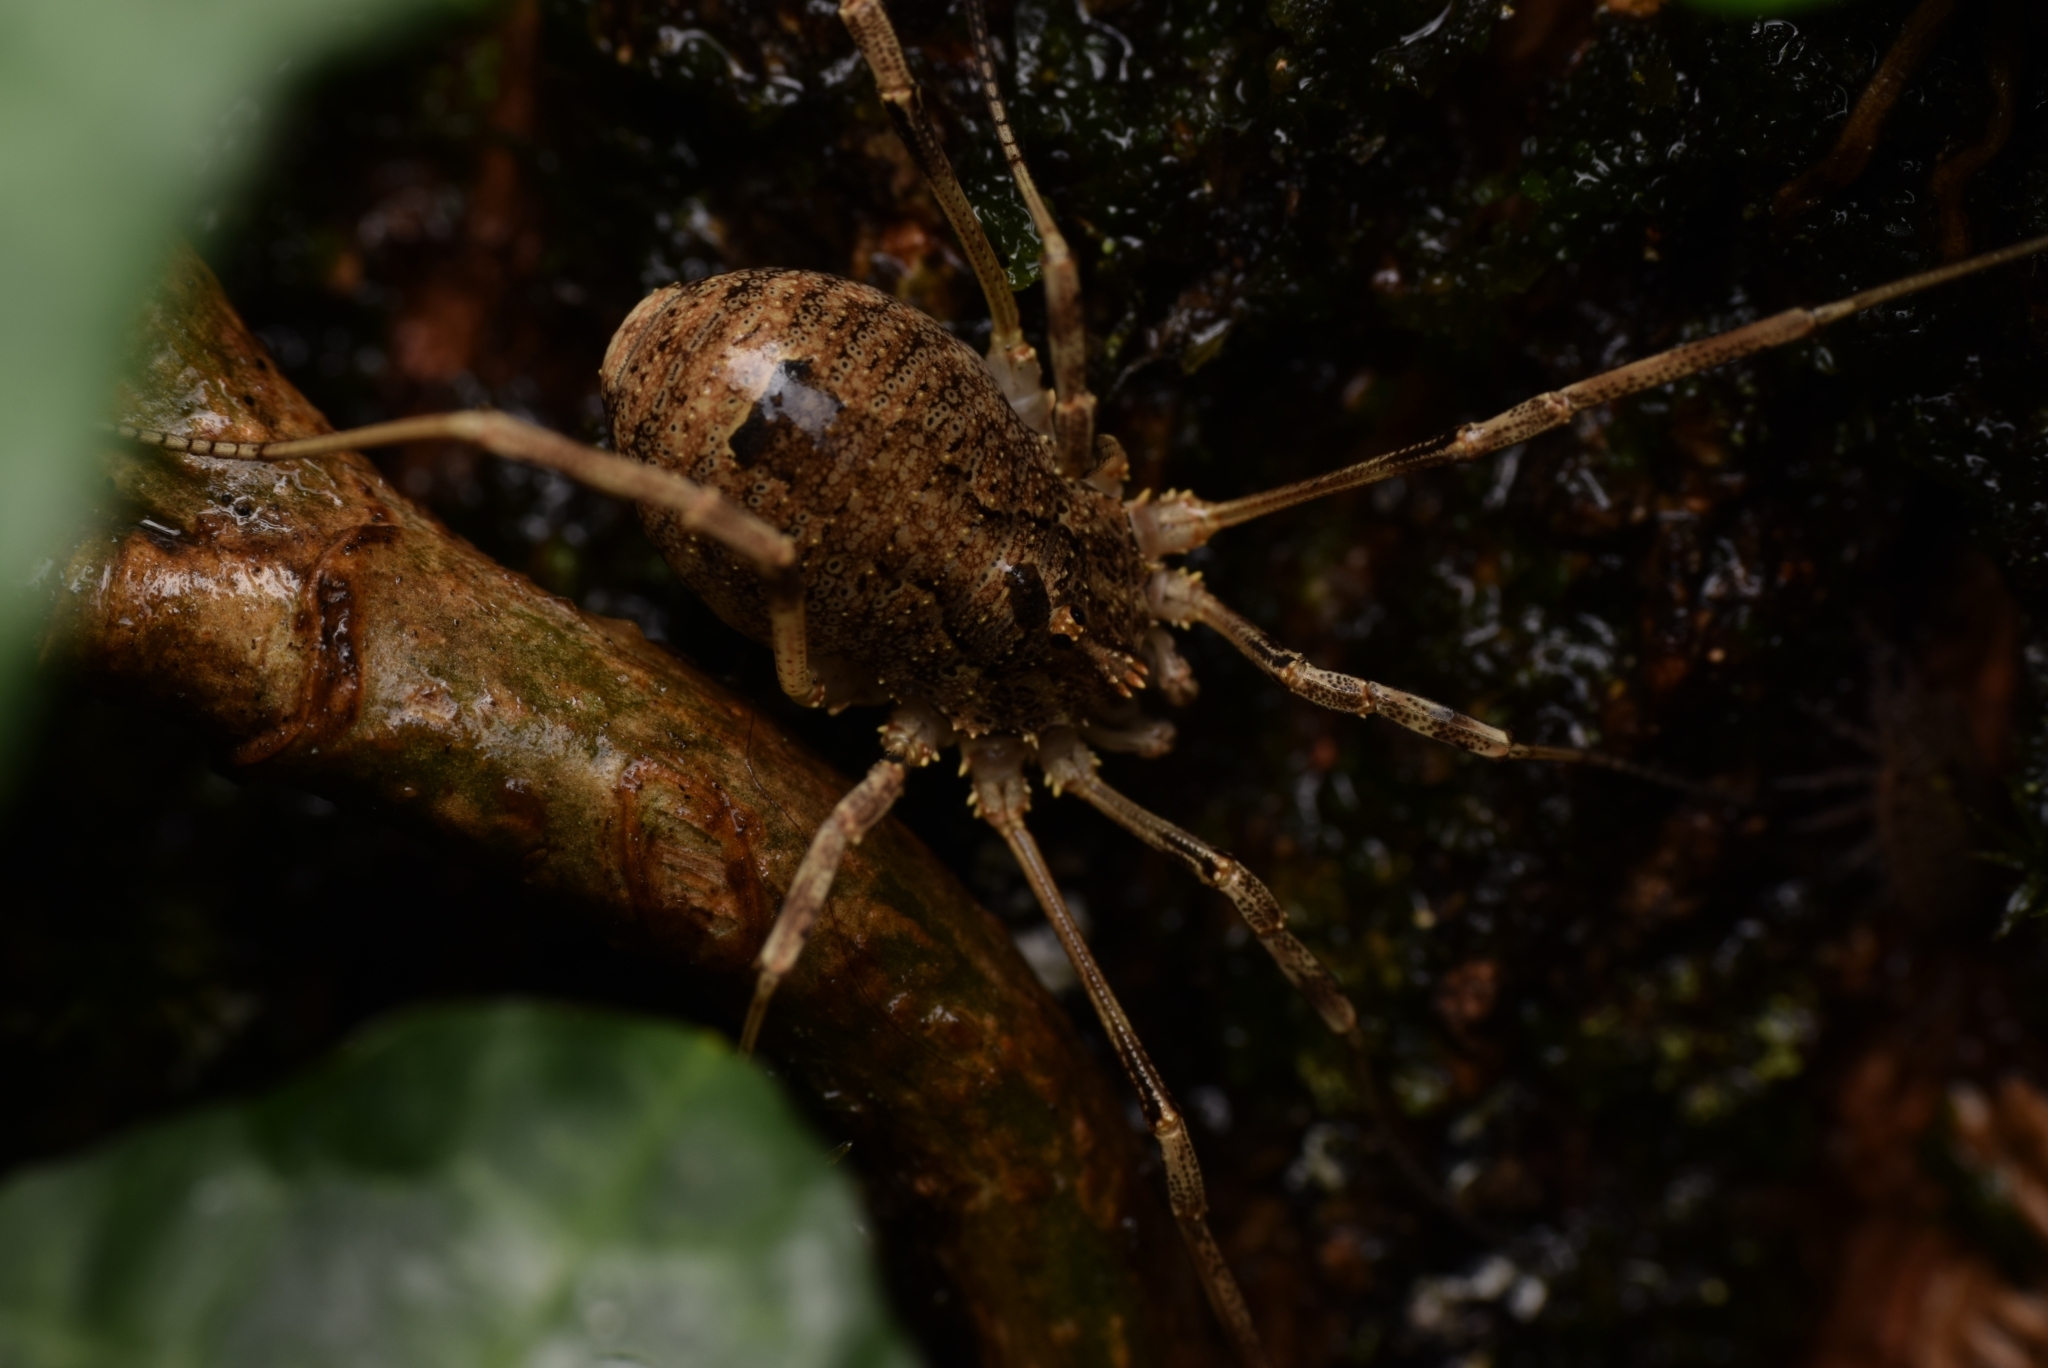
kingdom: Animalia
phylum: Arthropoda
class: Arachnida
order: Opiliones
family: Phalangiidae
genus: Odiellus
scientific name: Odiellus spinosus
